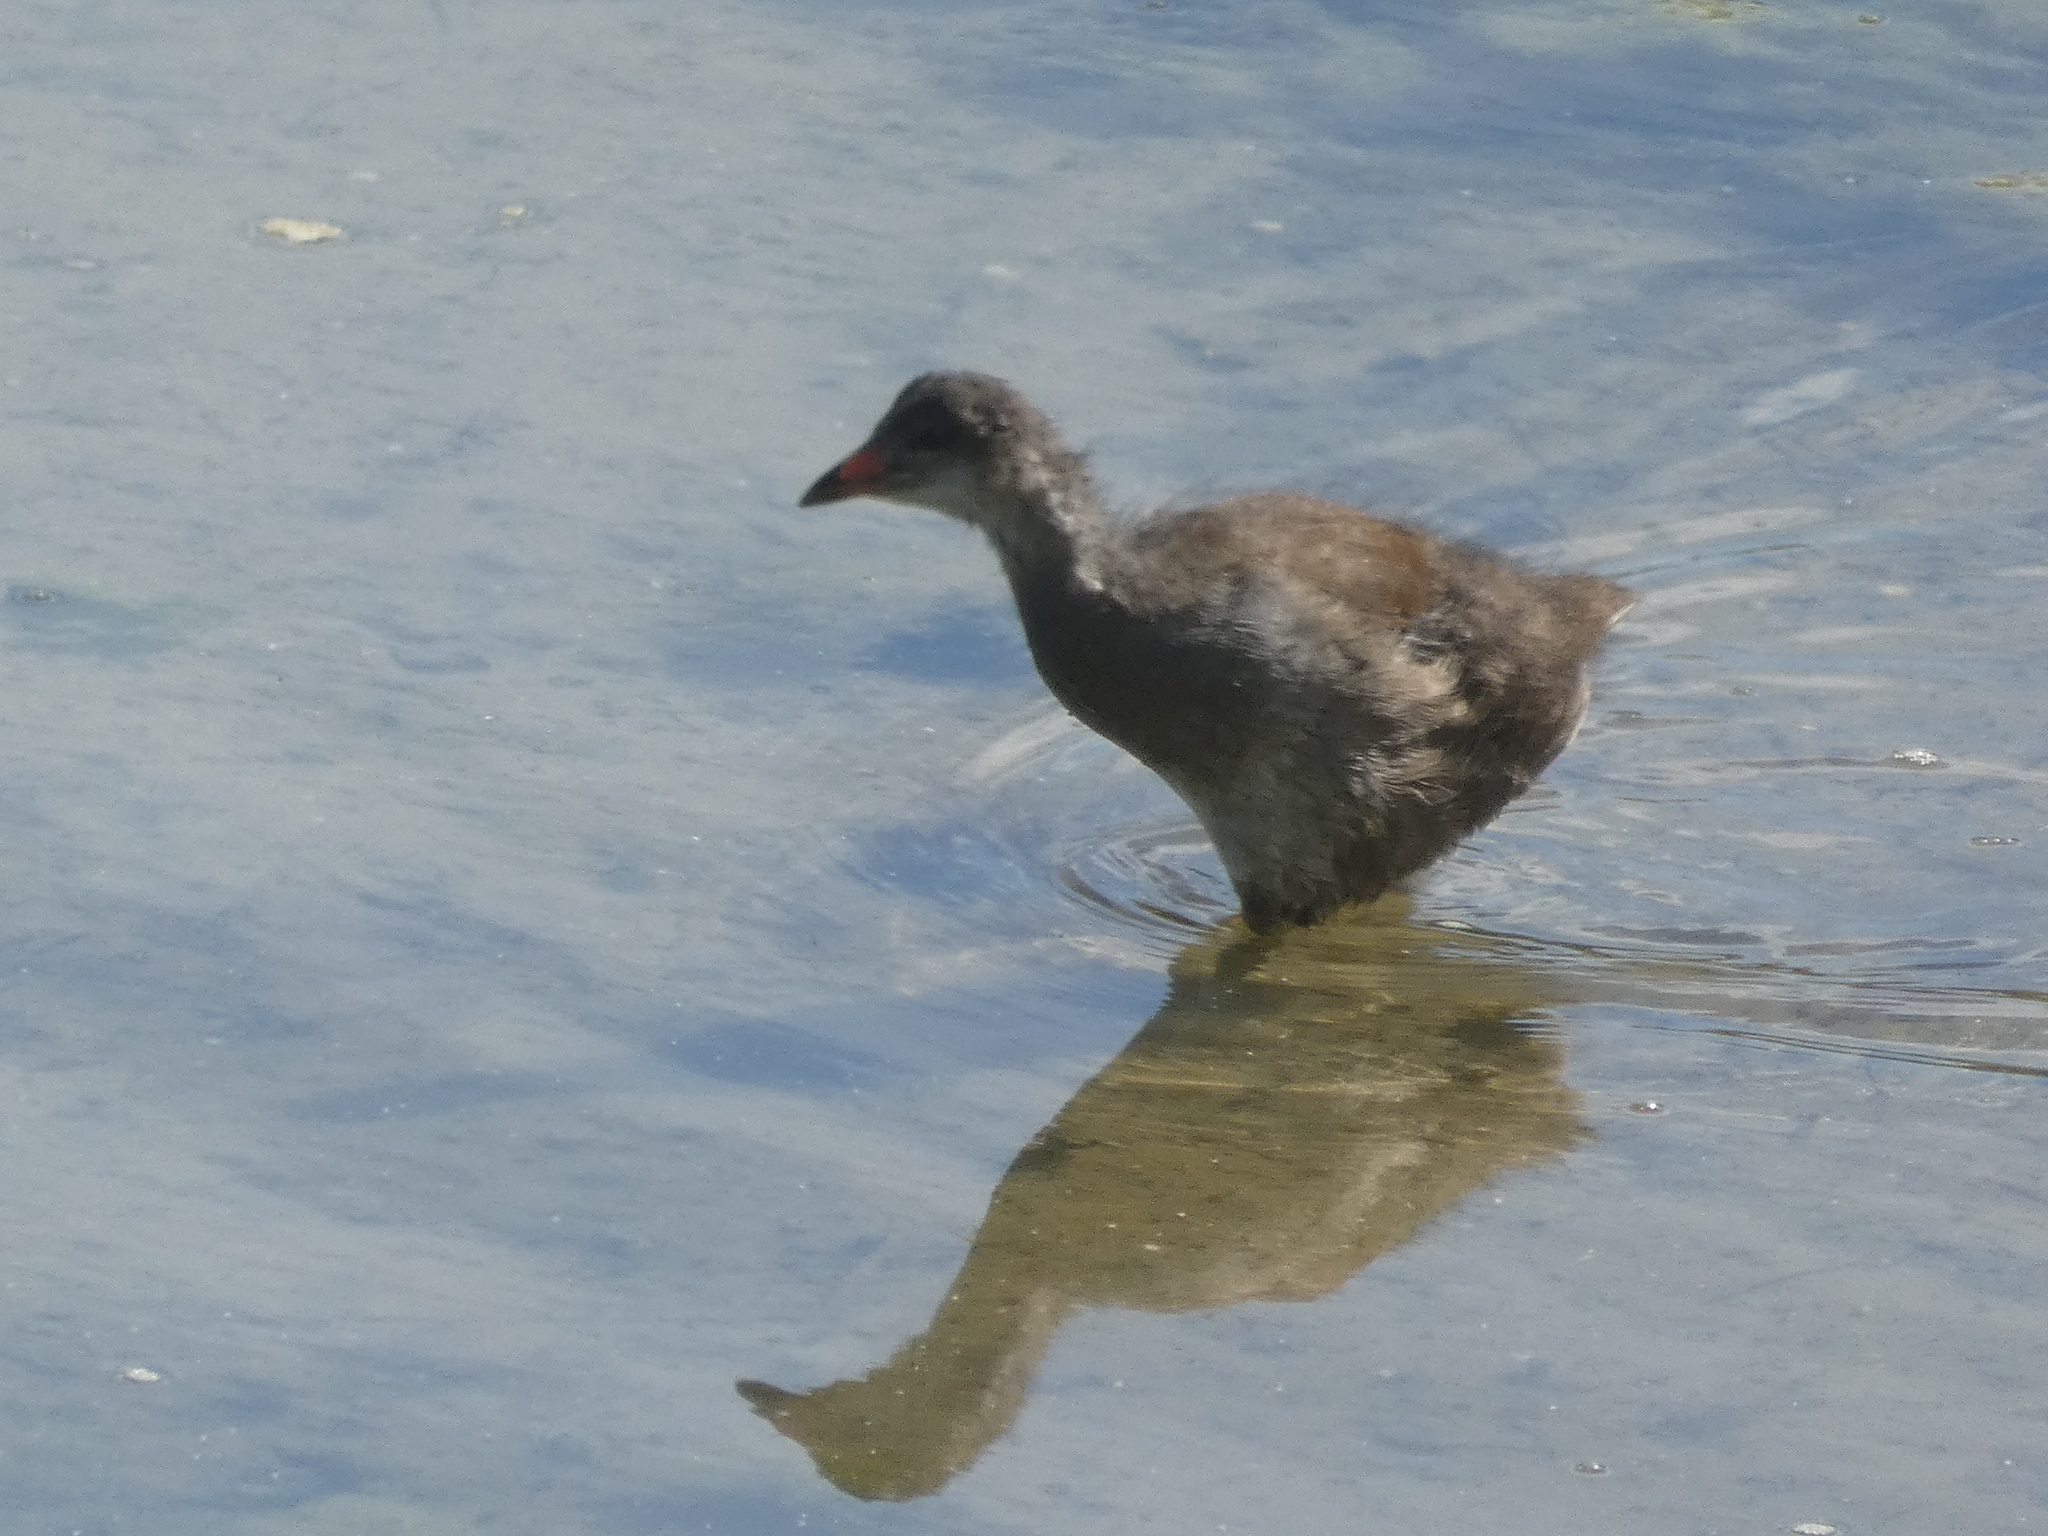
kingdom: Animalia
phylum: Chordata
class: Aves
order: Gruiformes
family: Rallidae
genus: Gallinula
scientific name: Gallinula chloropus
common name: Common moorhen
